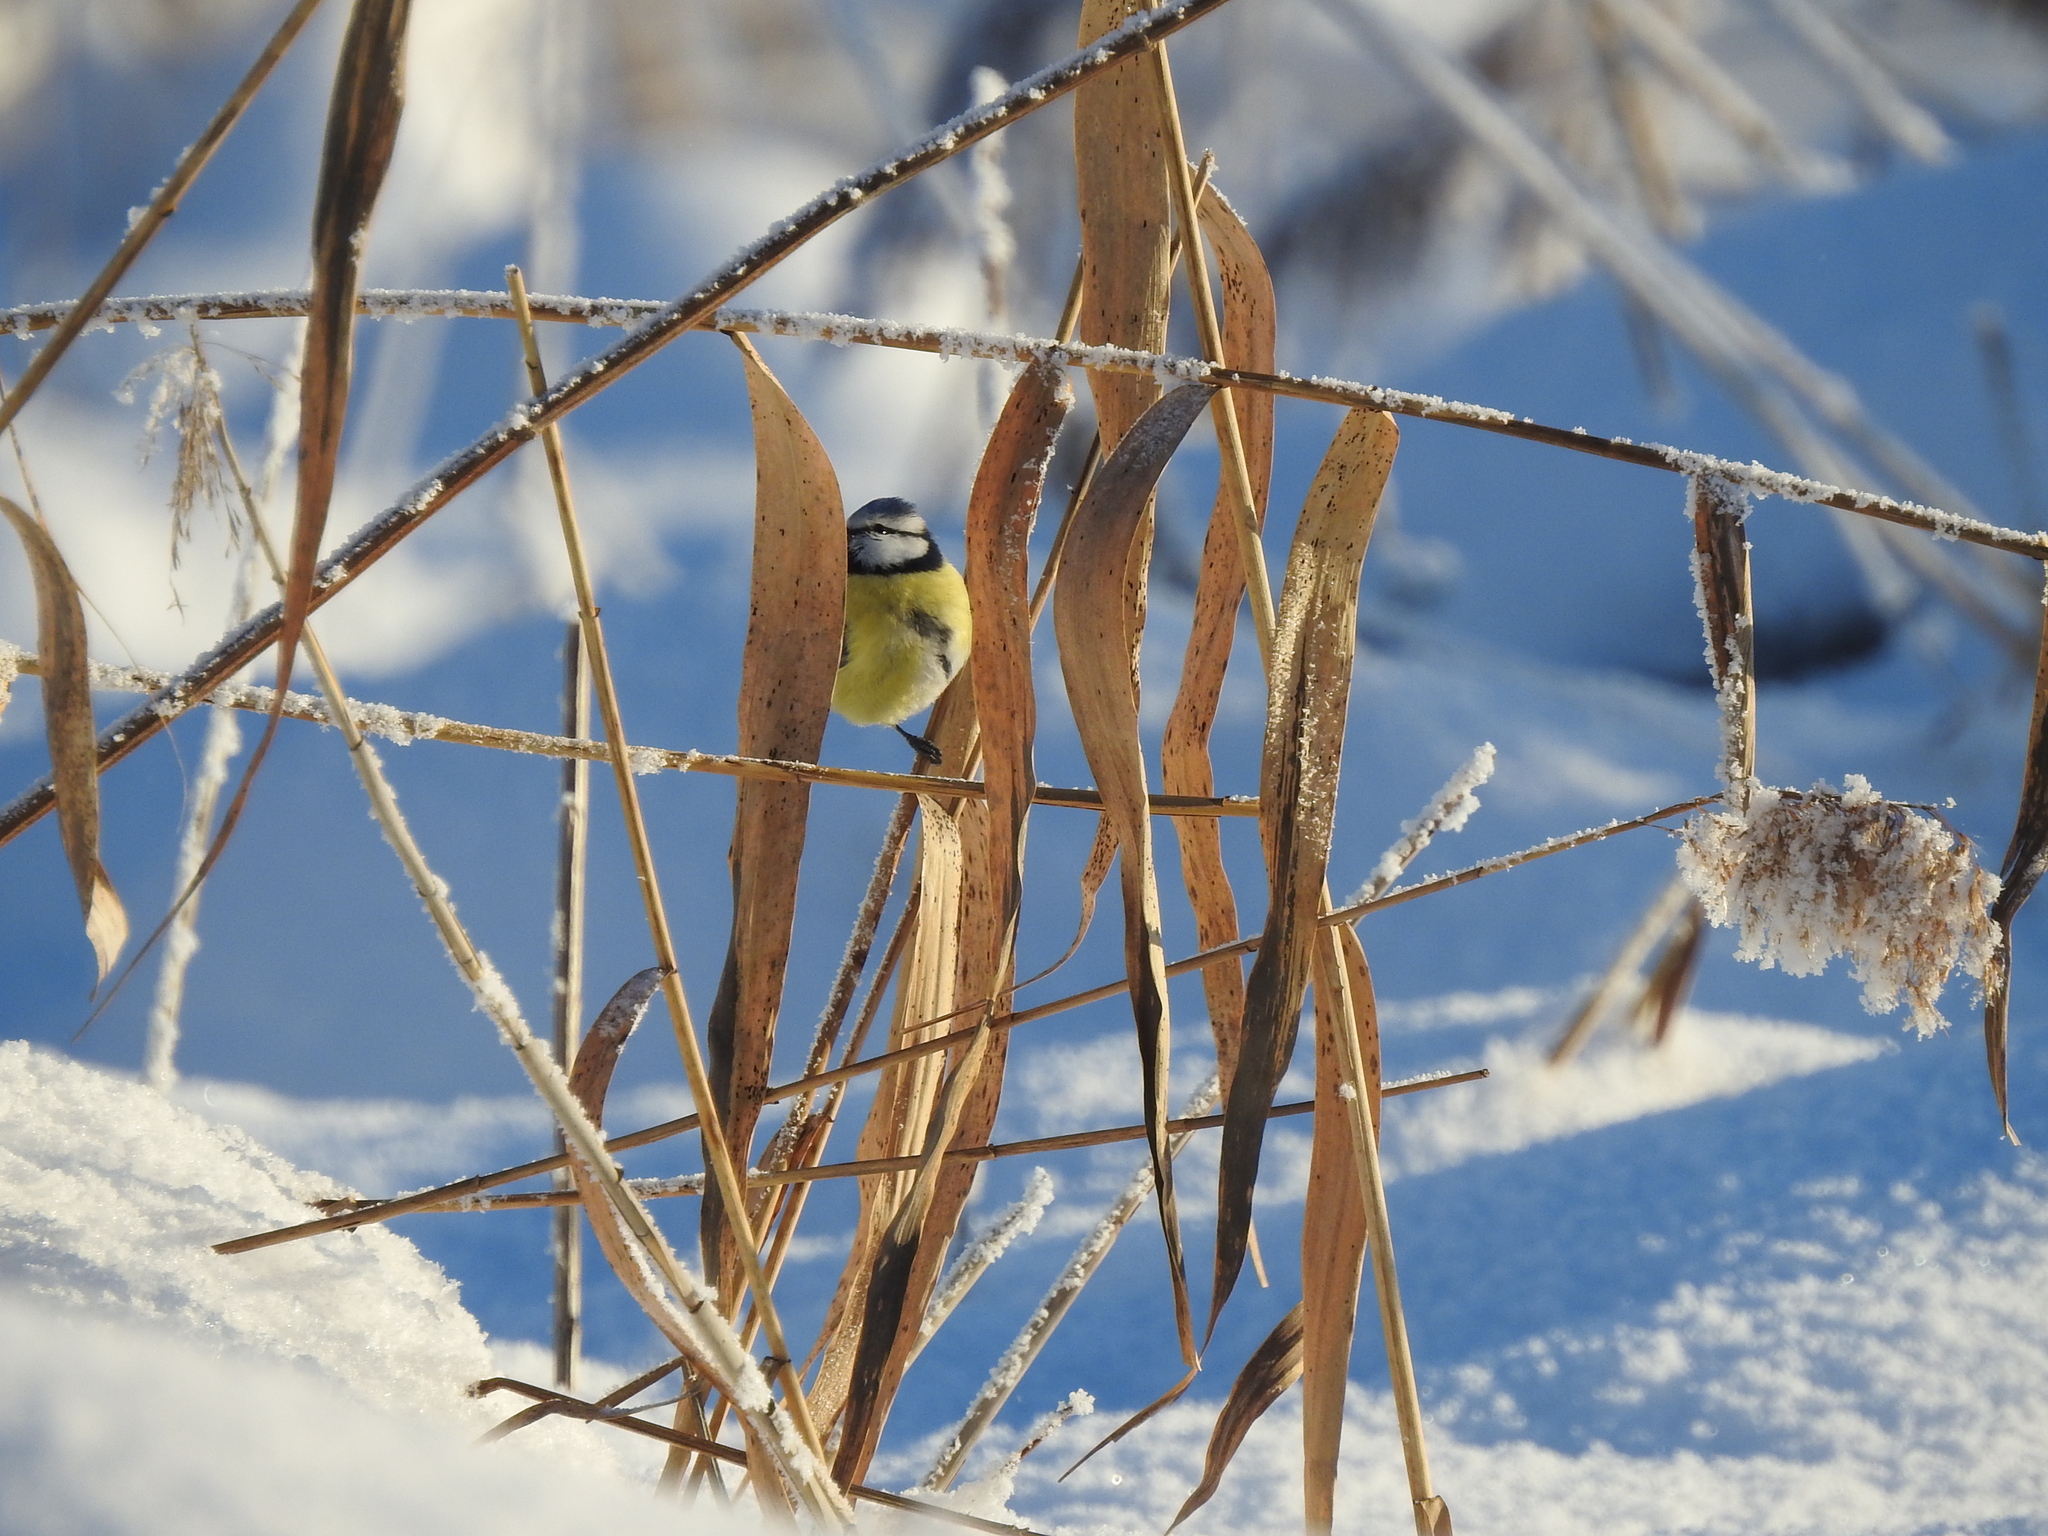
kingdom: Animalia
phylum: Chordata
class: Aves
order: Passeriformes
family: Paridae
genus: Cyanistes
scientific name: Cyanistes caeruleus
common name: Eurasian blue tit
